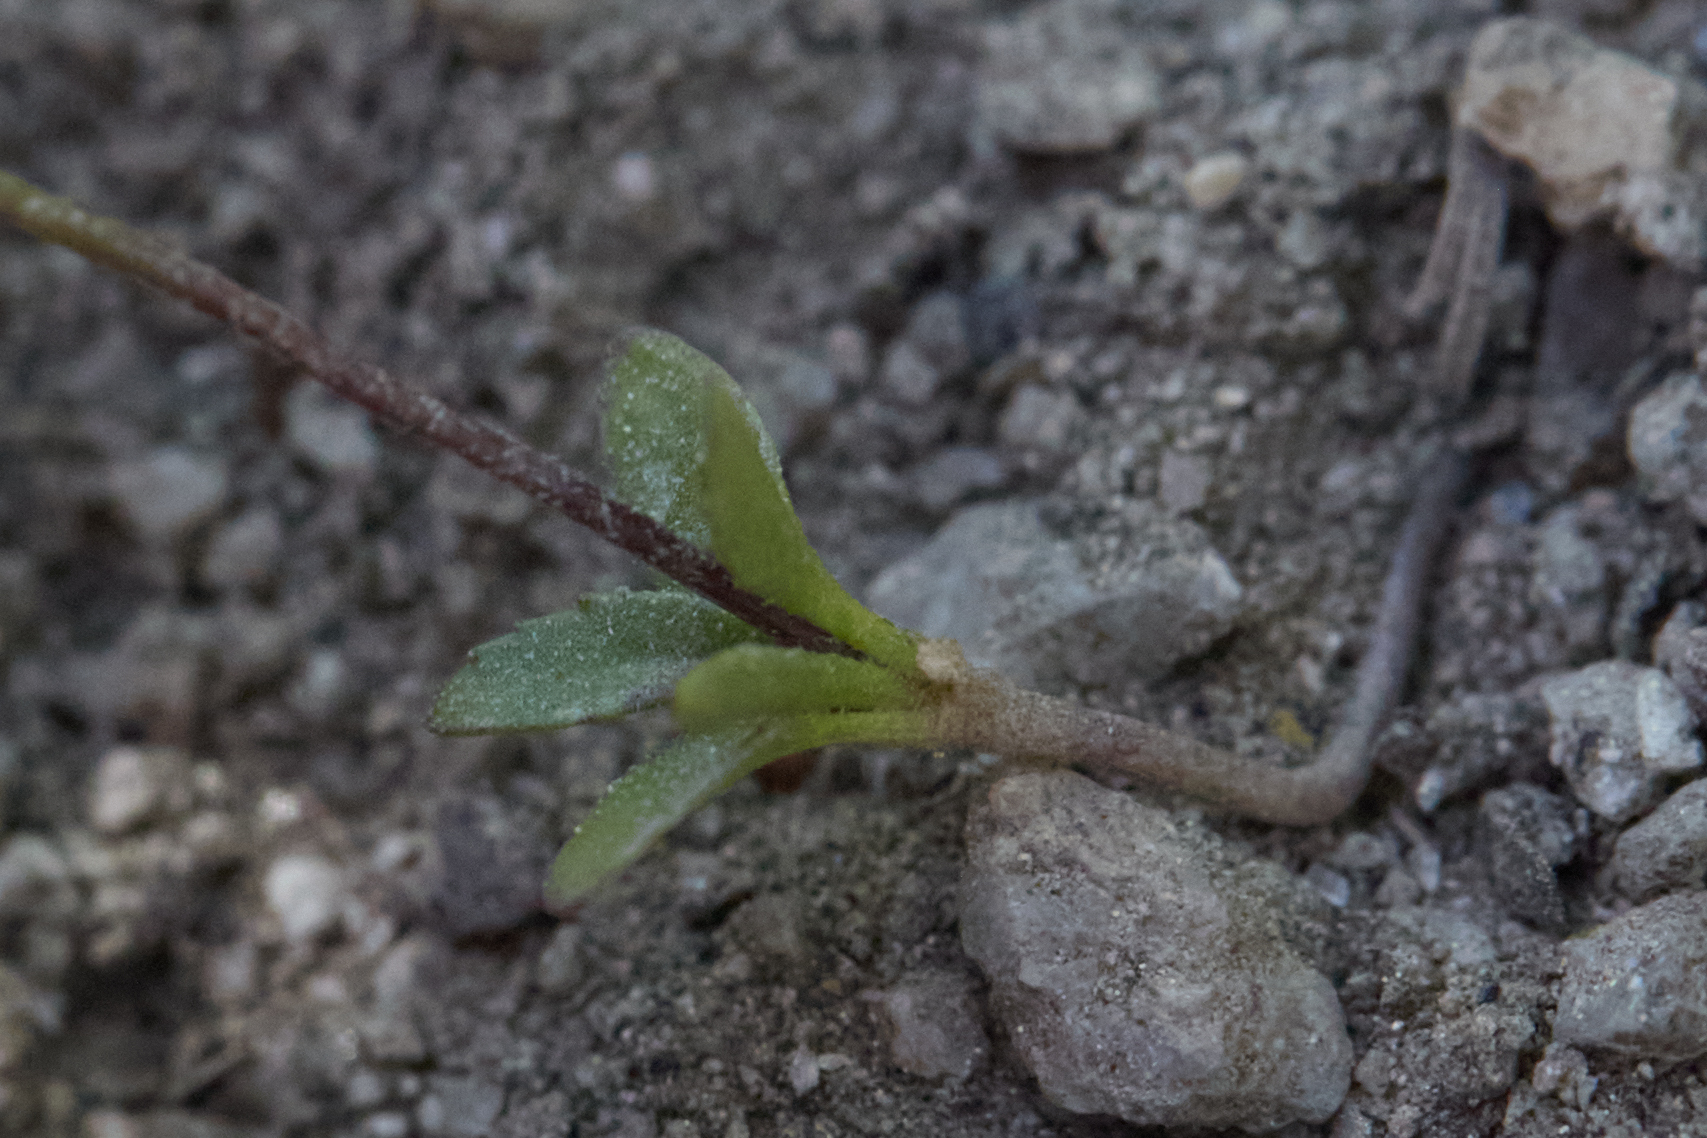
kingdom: Plantae
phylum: Tracheophyta
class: Magnoliopsida
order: Asterales
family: Campanulaceae
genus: Nemacladus
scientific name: Nemacladus parikhiae
